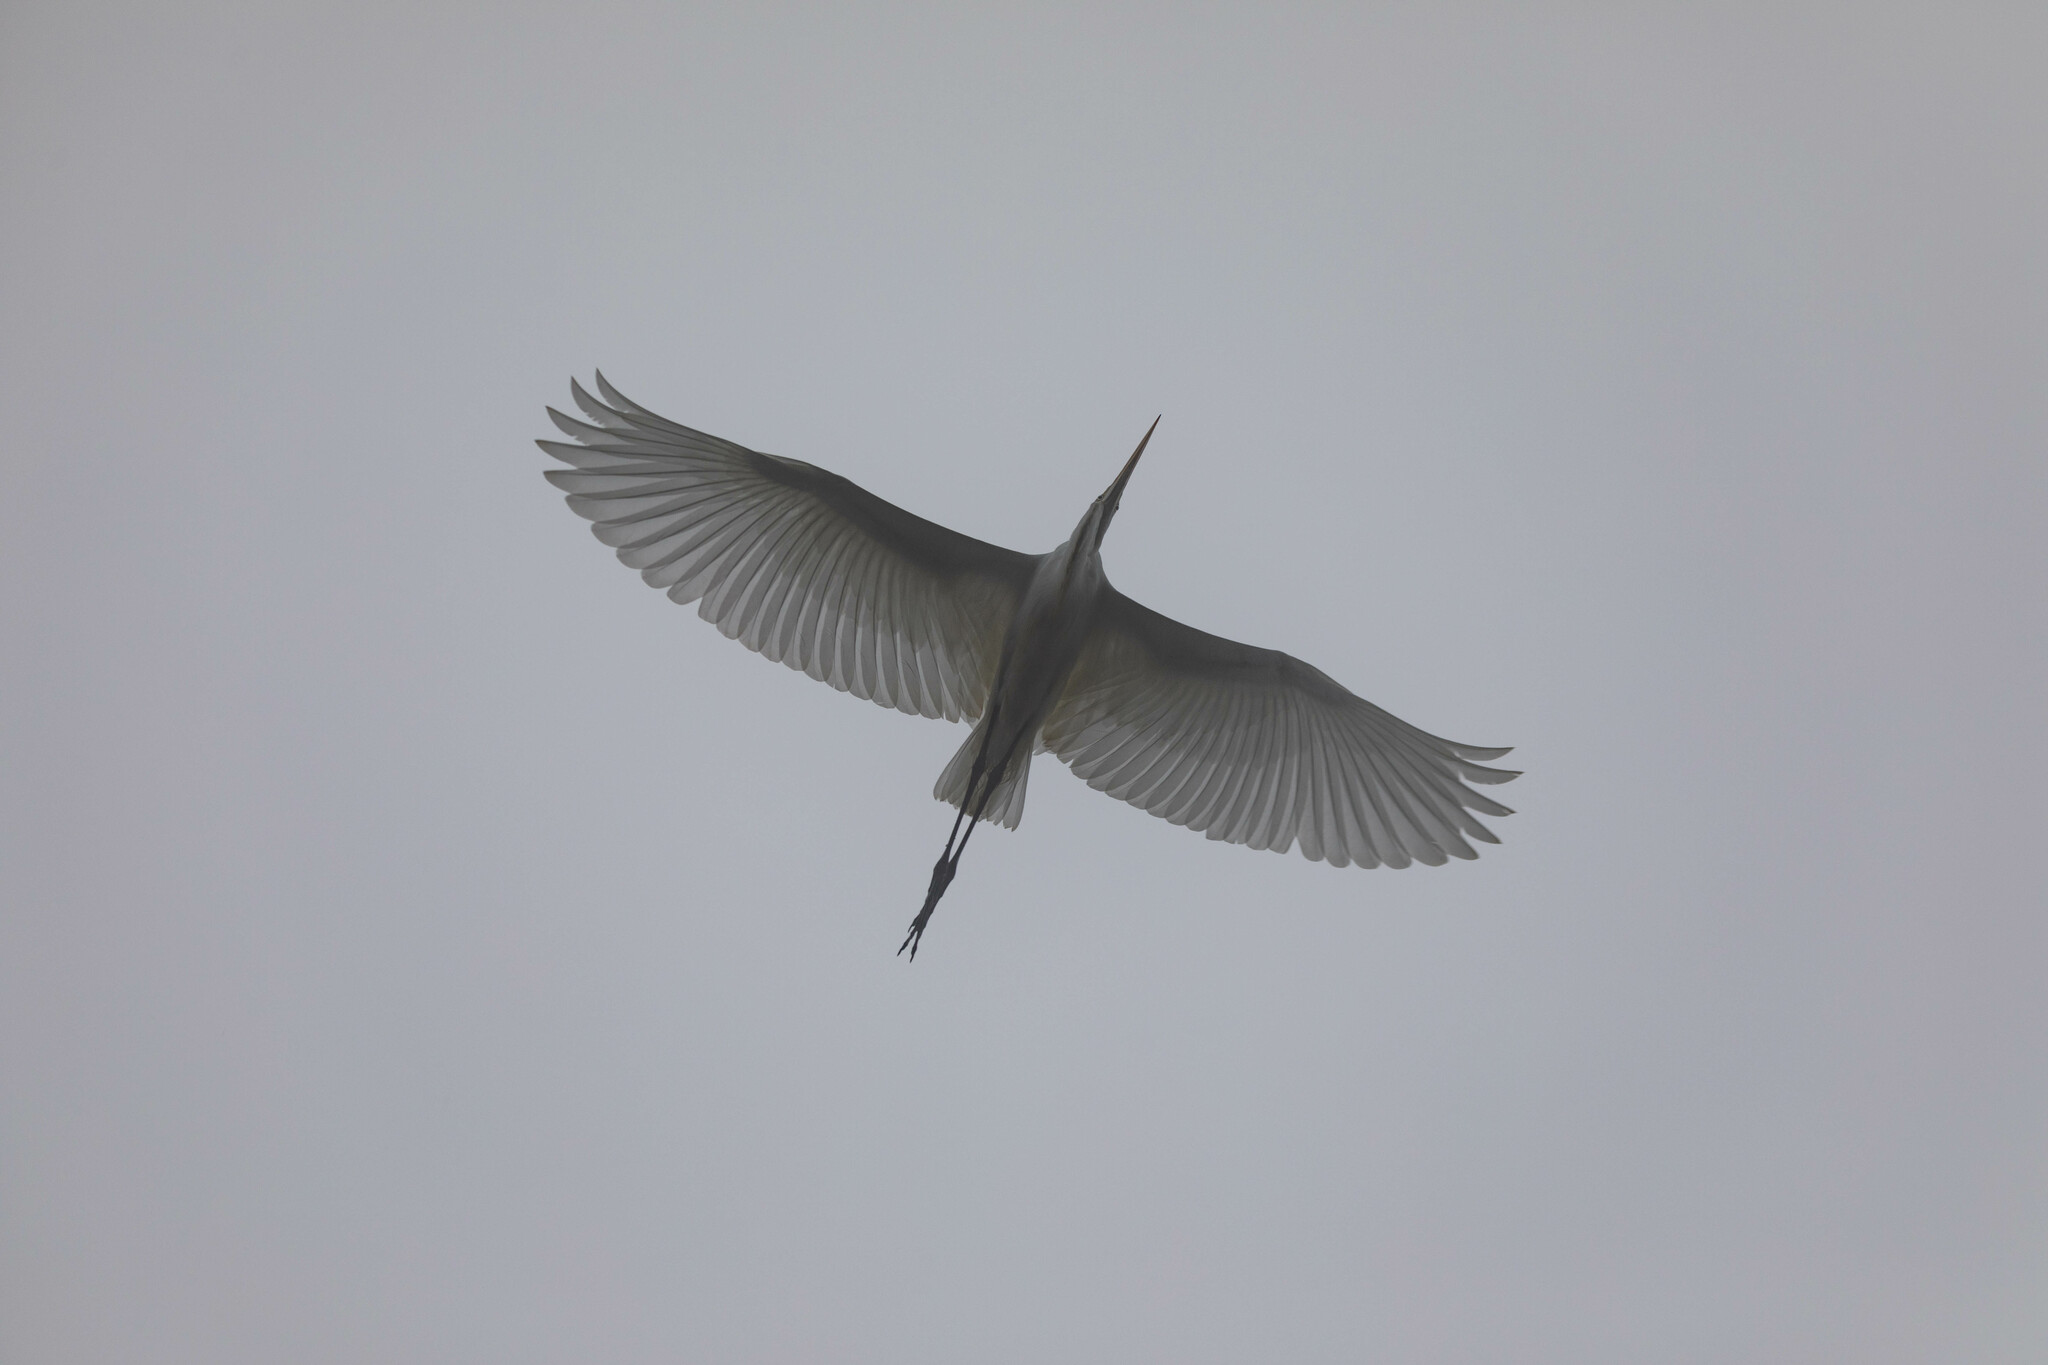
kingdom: Animalia
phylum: Chordata
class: Aves
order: Pelecaniformes
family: Ardeidae
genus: Ardea
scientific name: Ardea alba
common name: Great egret
